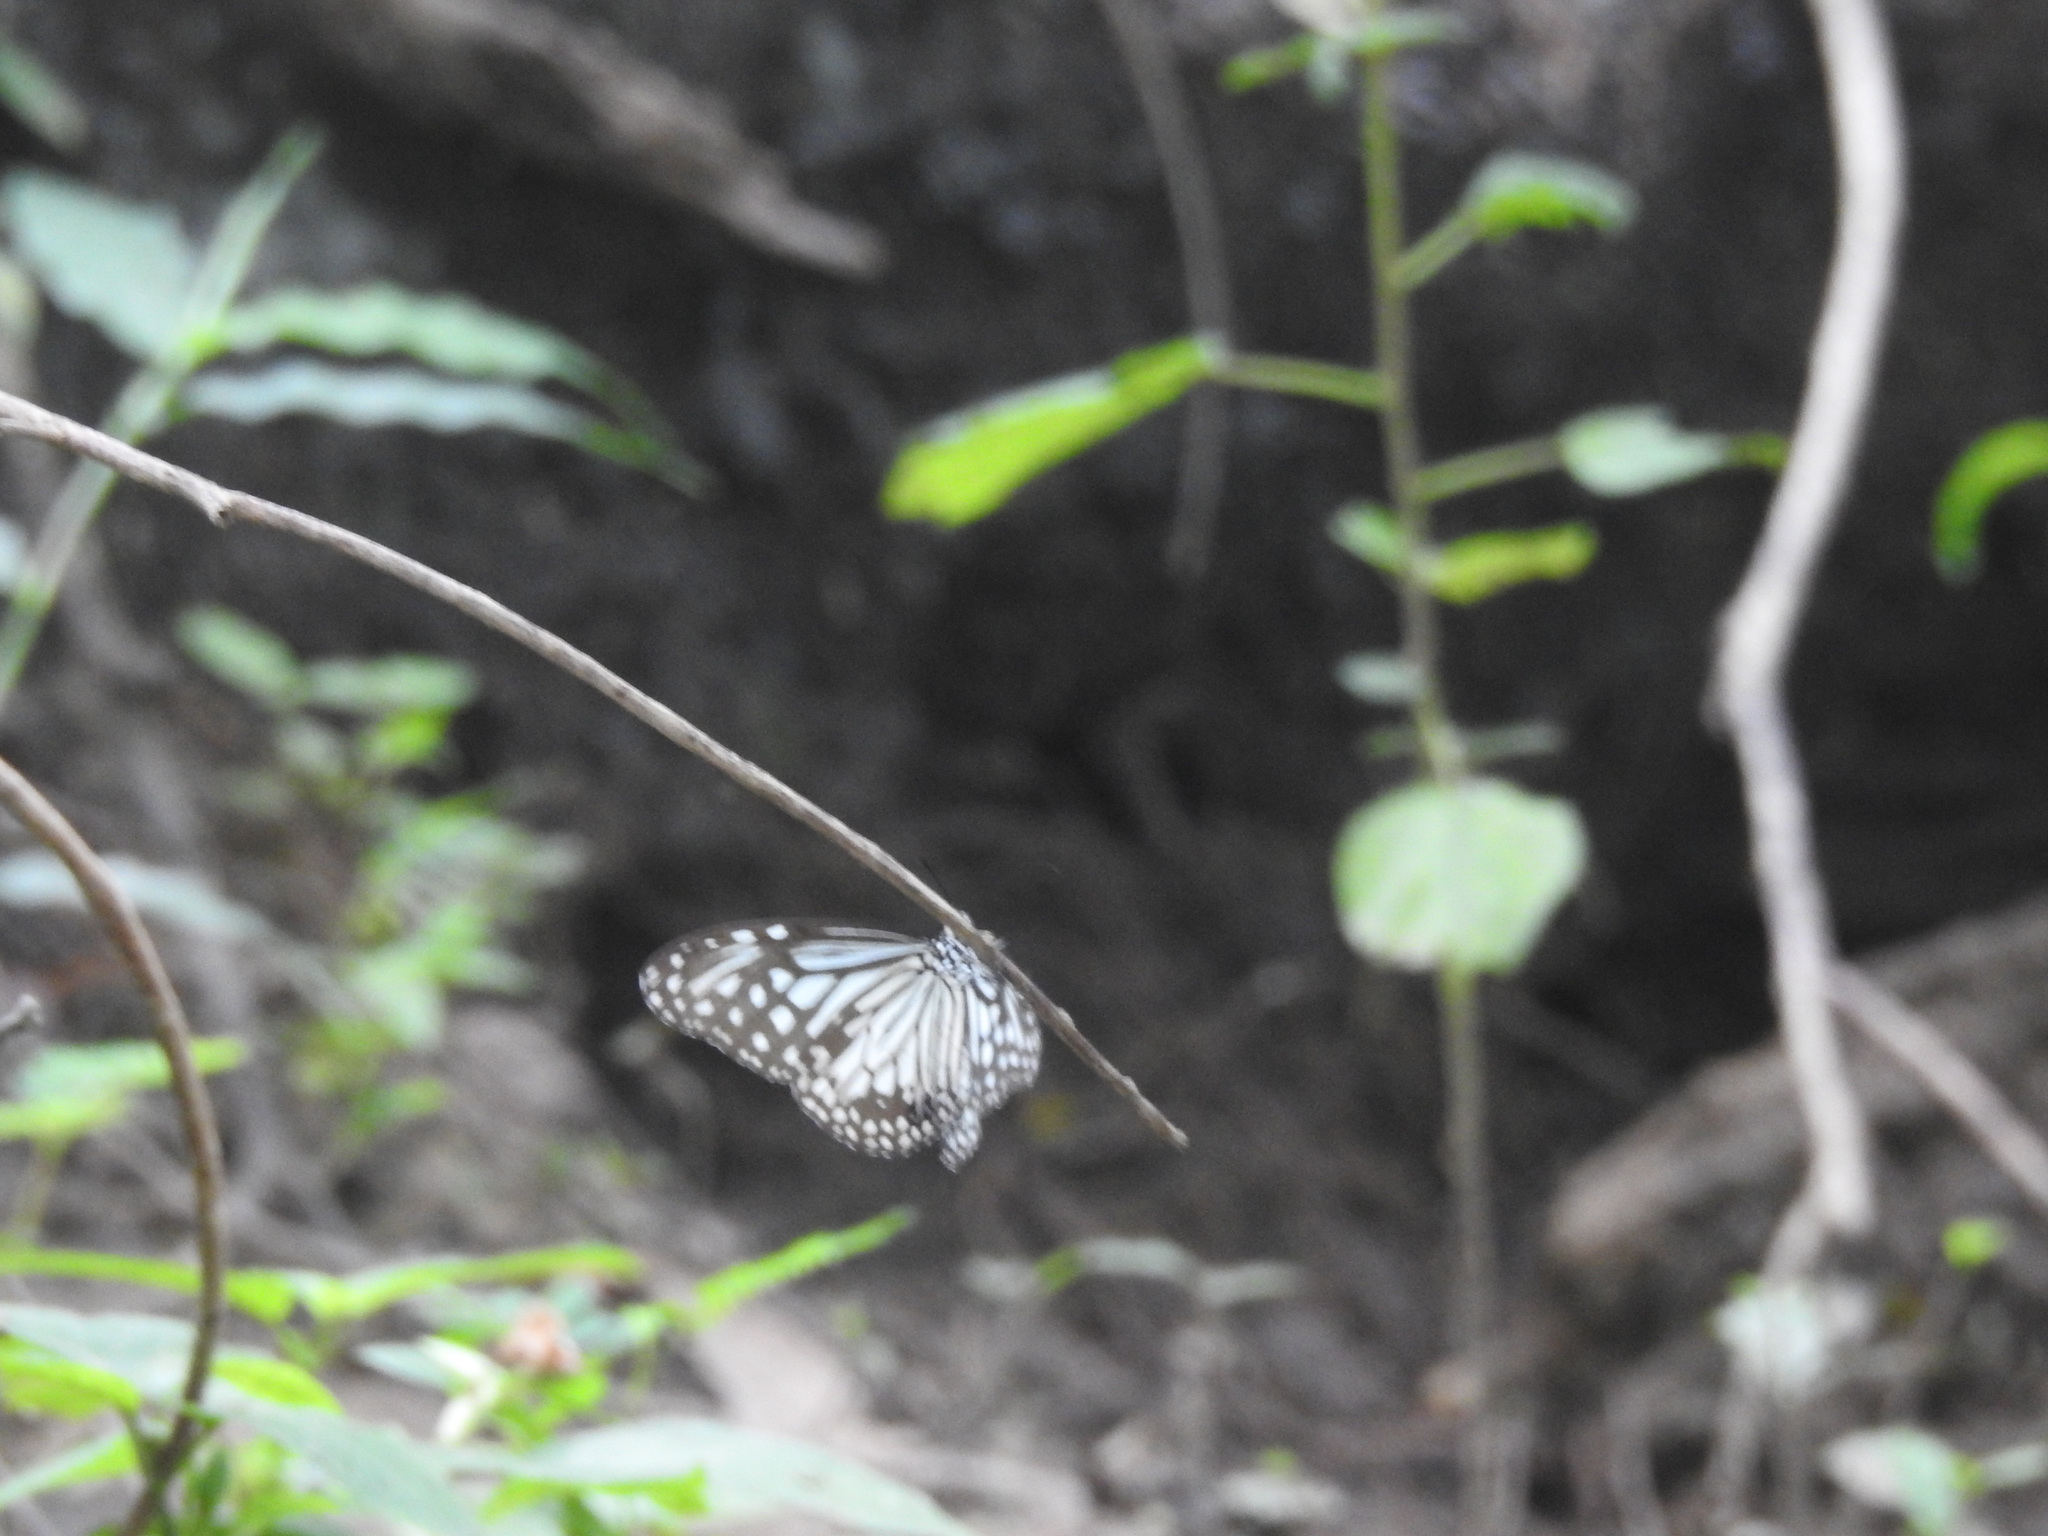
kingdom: Animalia
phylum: Arthropoda
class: Insecta
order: Lepidoptera
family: Nymphalidae
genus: Parantica
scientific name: Parantica aglea
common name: Glassy tiger
